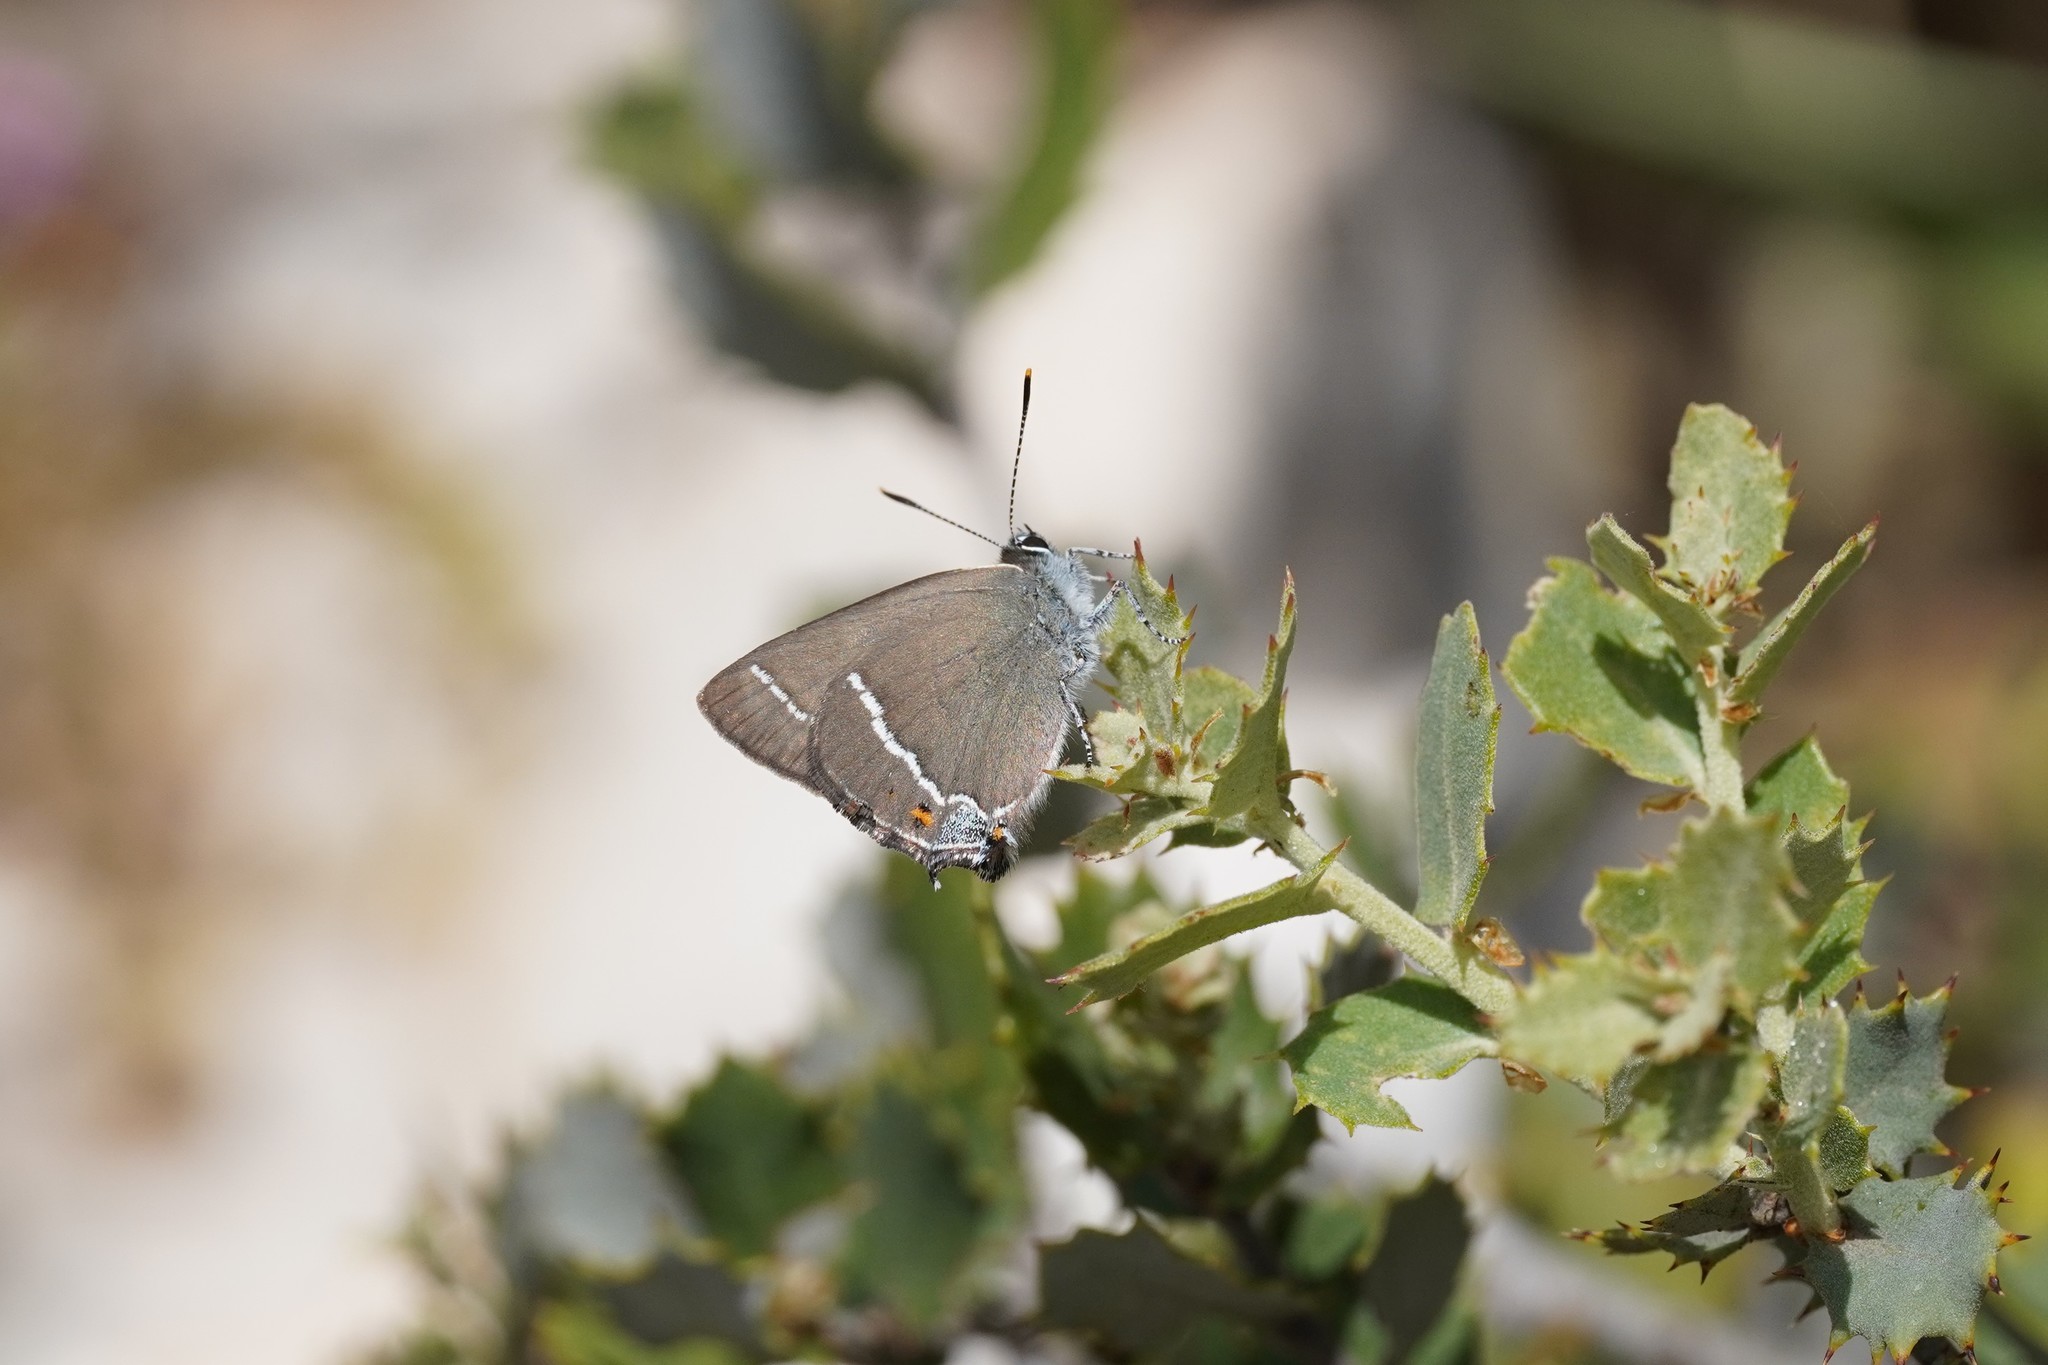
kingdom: Animalia
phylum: Arthropoda
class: Insecta
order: Lepidoptera
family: Lycaenidae
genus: Tuttiola
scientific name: Tuttiola spini
